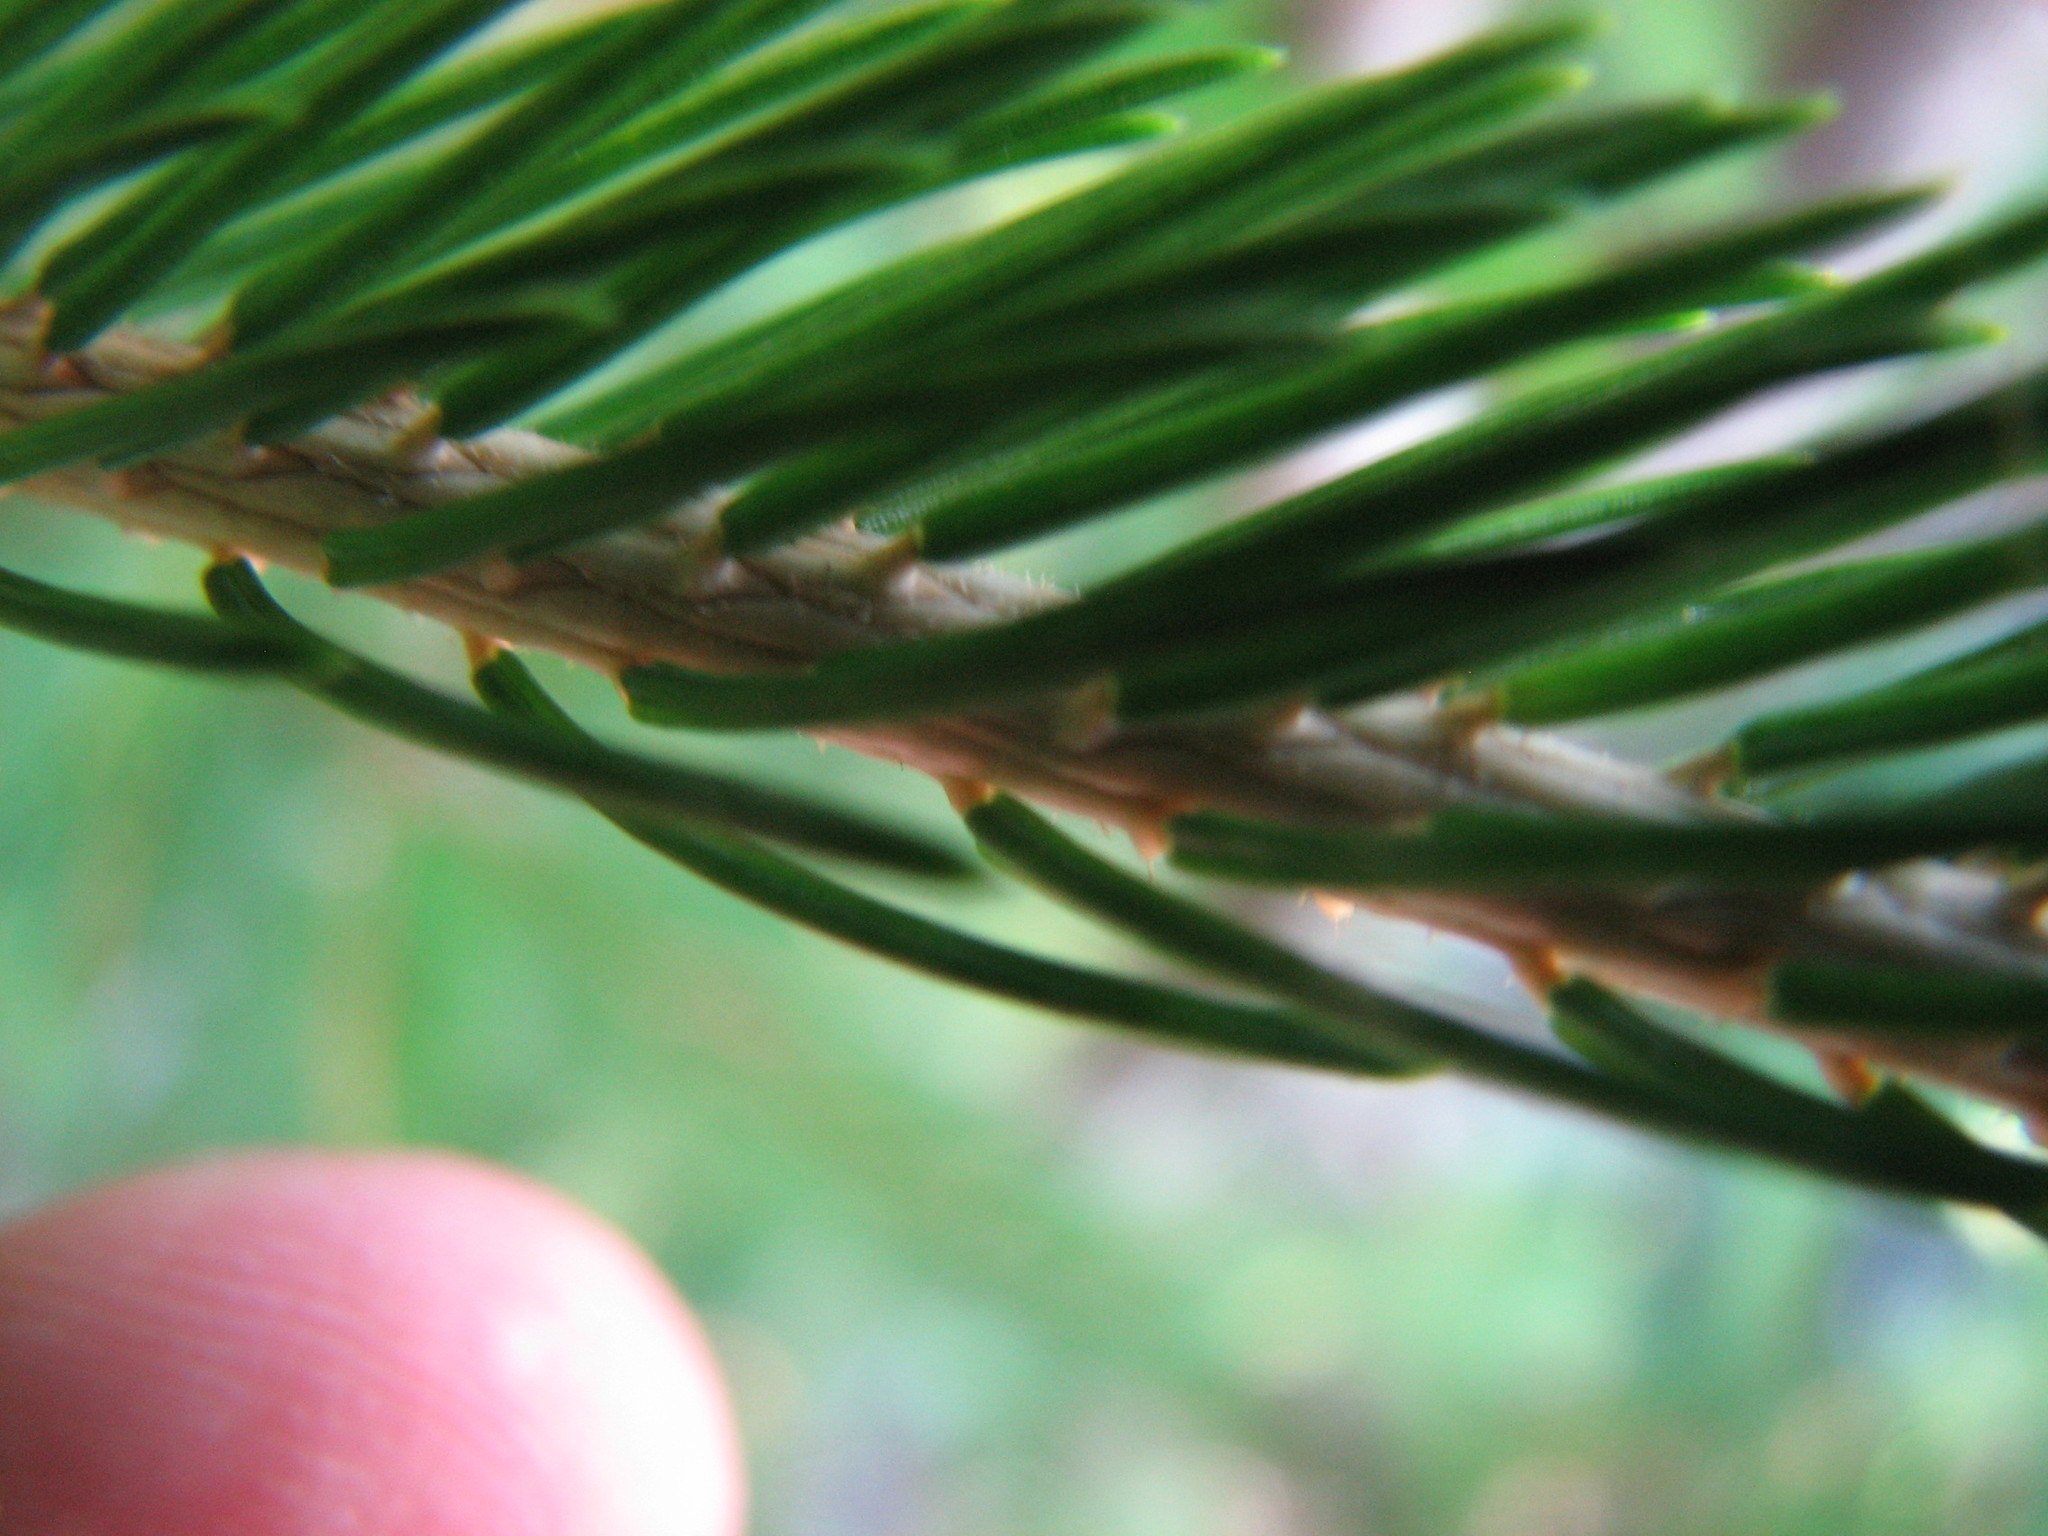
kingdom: Plantae
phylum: Tracheophyta
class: Pinopsida
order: Pinales
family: Pinaceae
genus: Picea
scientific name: Picea glauca
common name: White spruce
